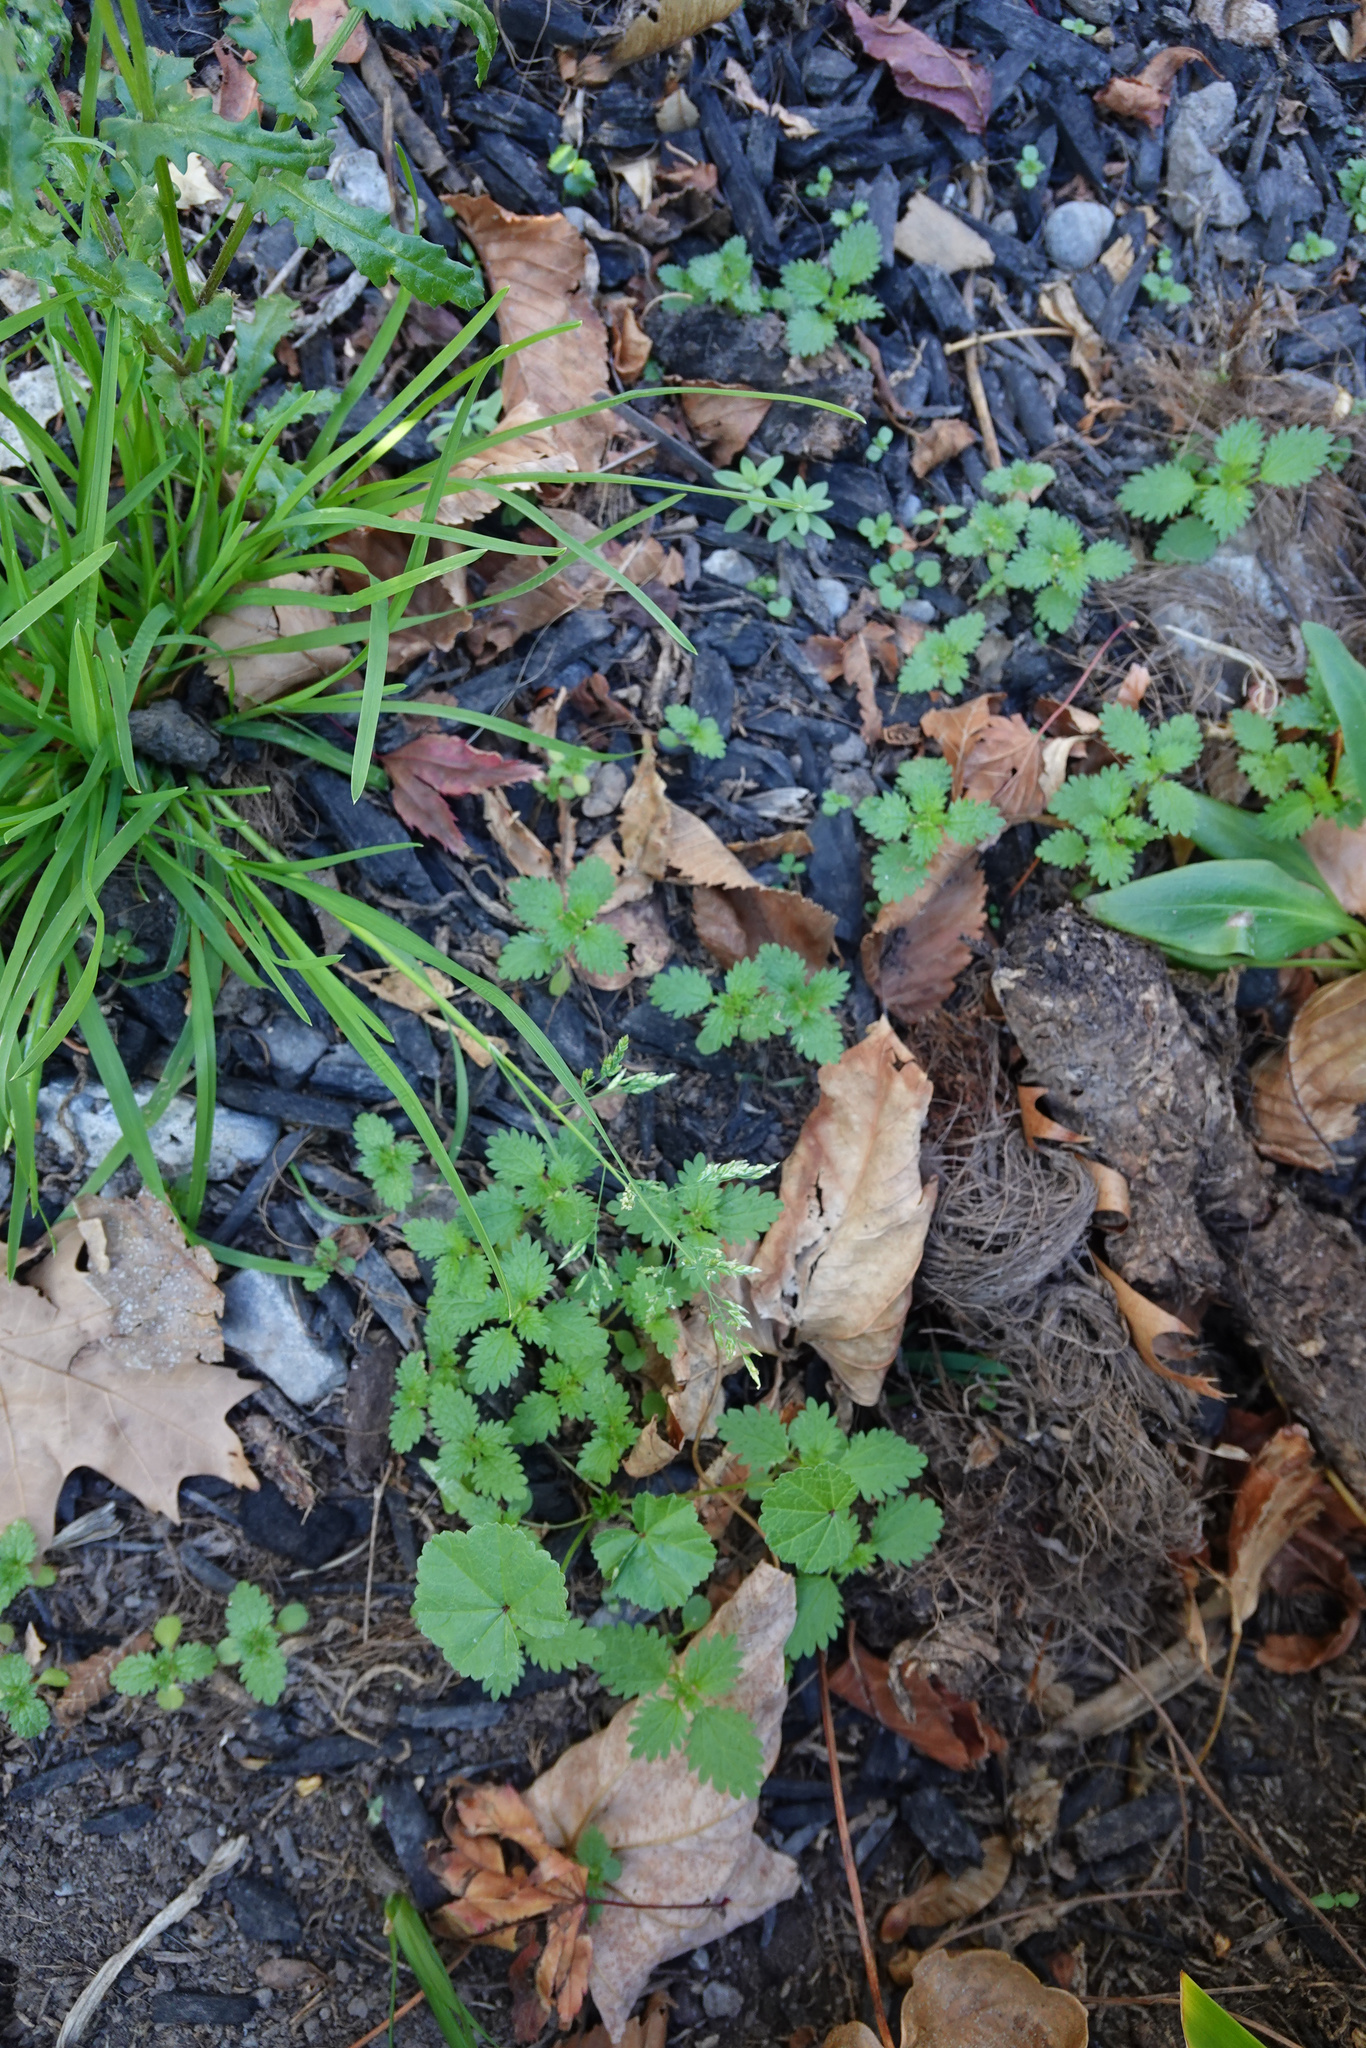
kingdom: Plantae
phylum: Tracheophyta
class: Magnoliopsida
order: Rosales
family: Urticaceae
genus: Urtica
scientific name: Urtica urens
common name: Dwarf nettle
